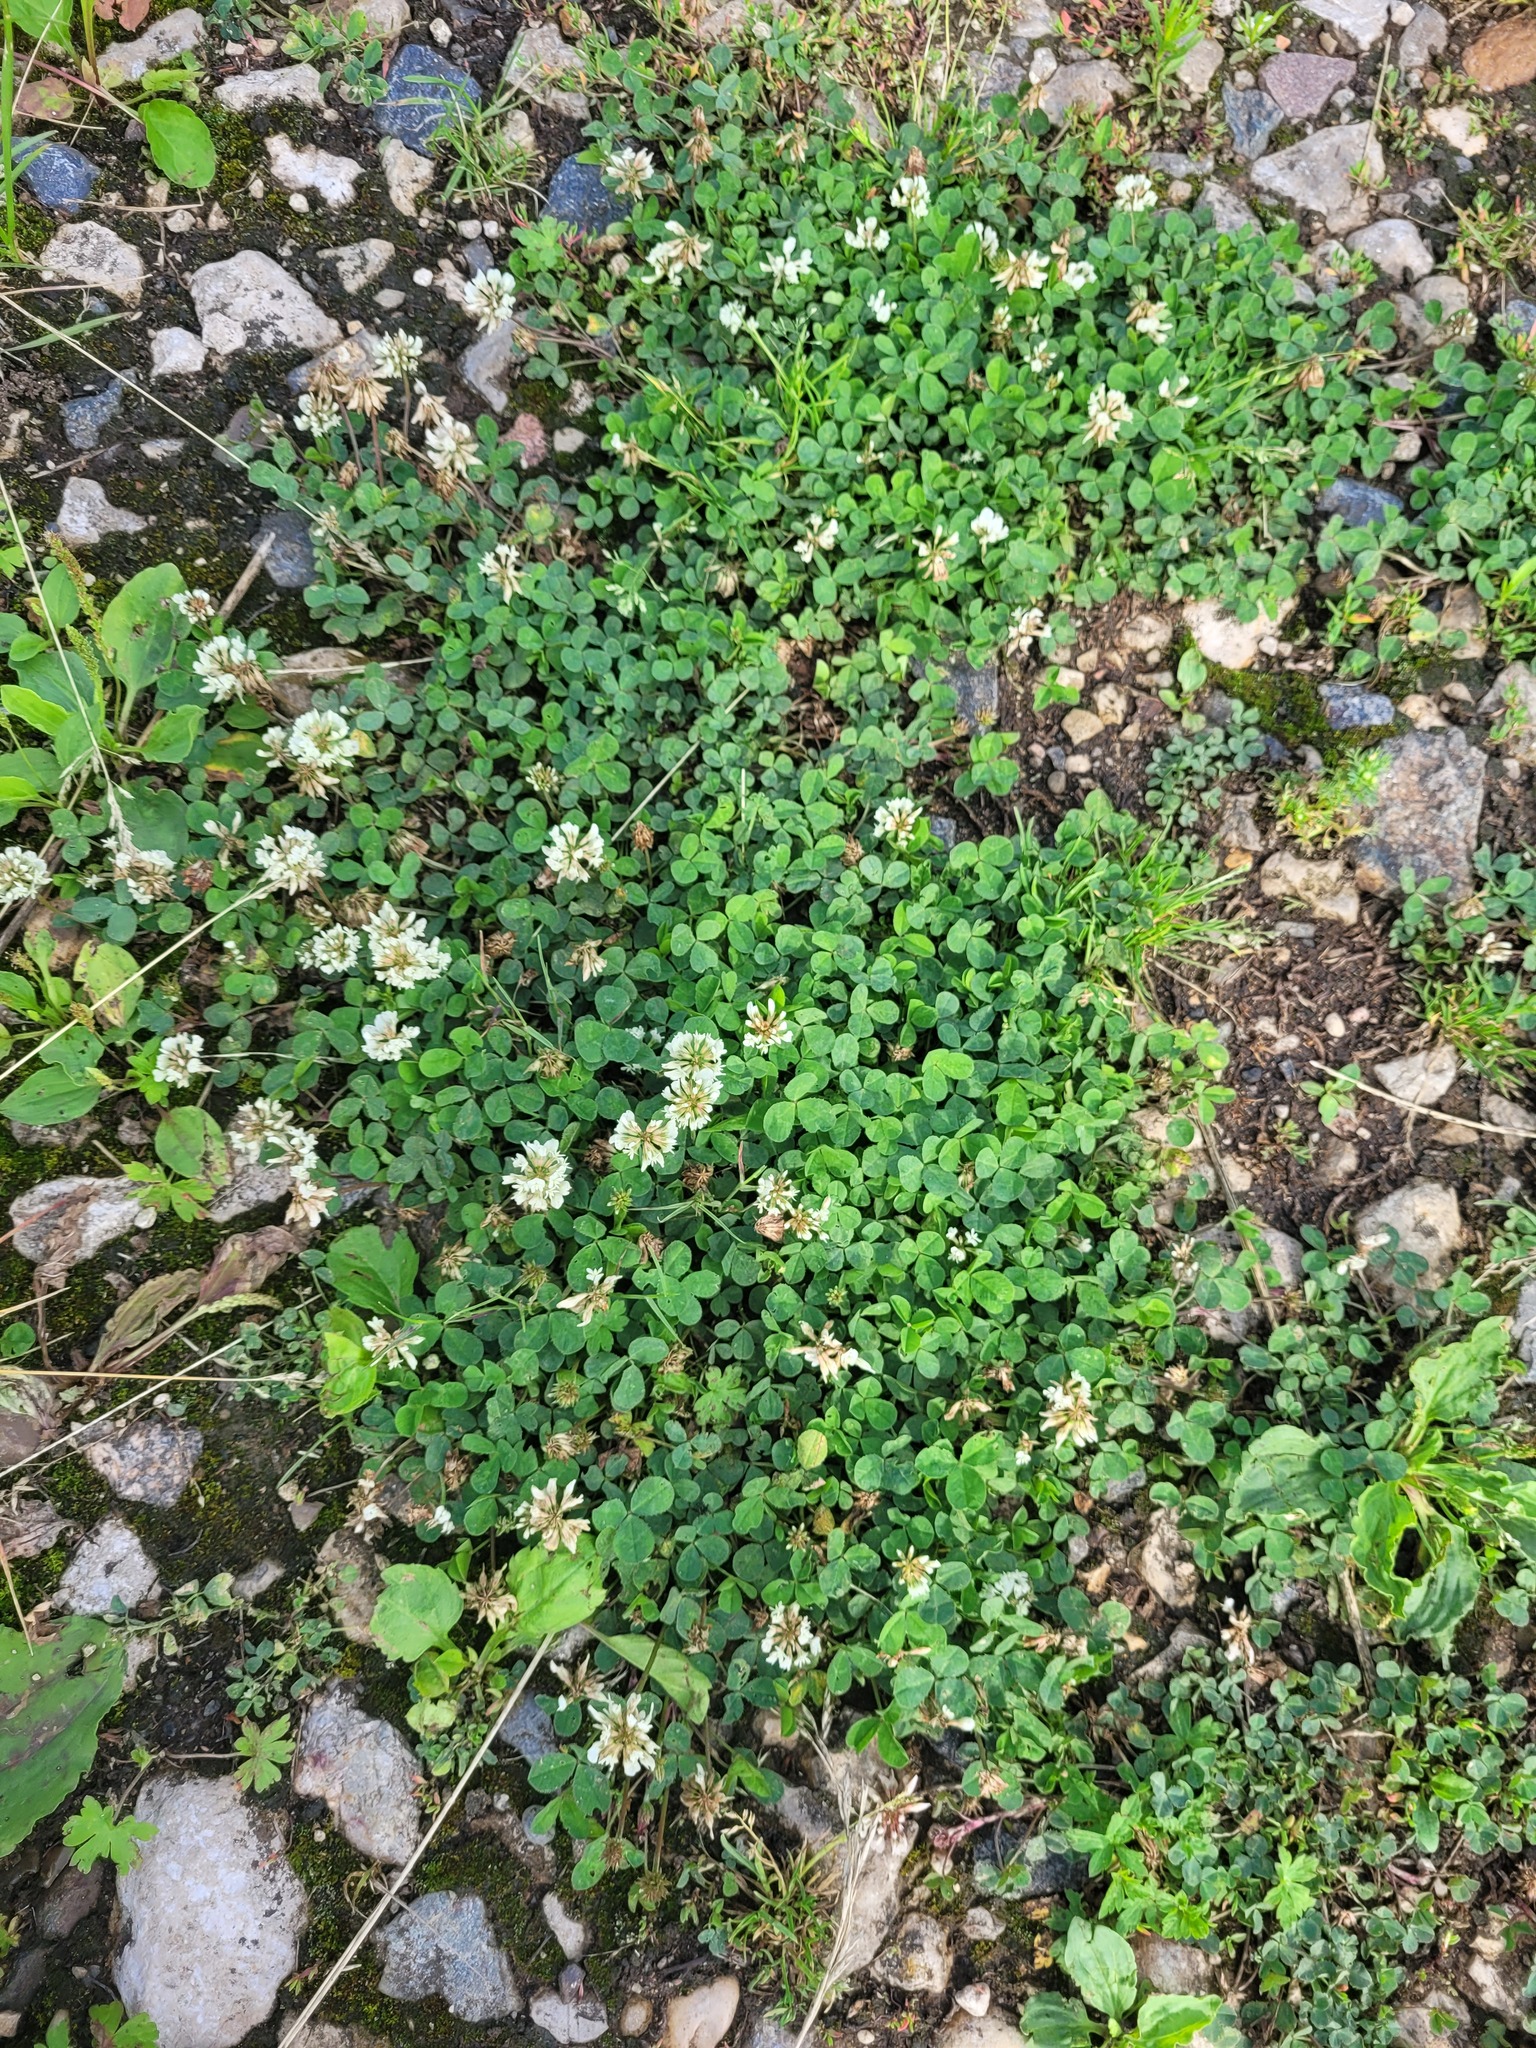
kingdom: Plantae
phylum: Tracheophyta
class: Magnoliopsida
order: Fabales
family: Fabaceae
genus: Trifolium
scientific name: Trifolium repens
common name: White clover
